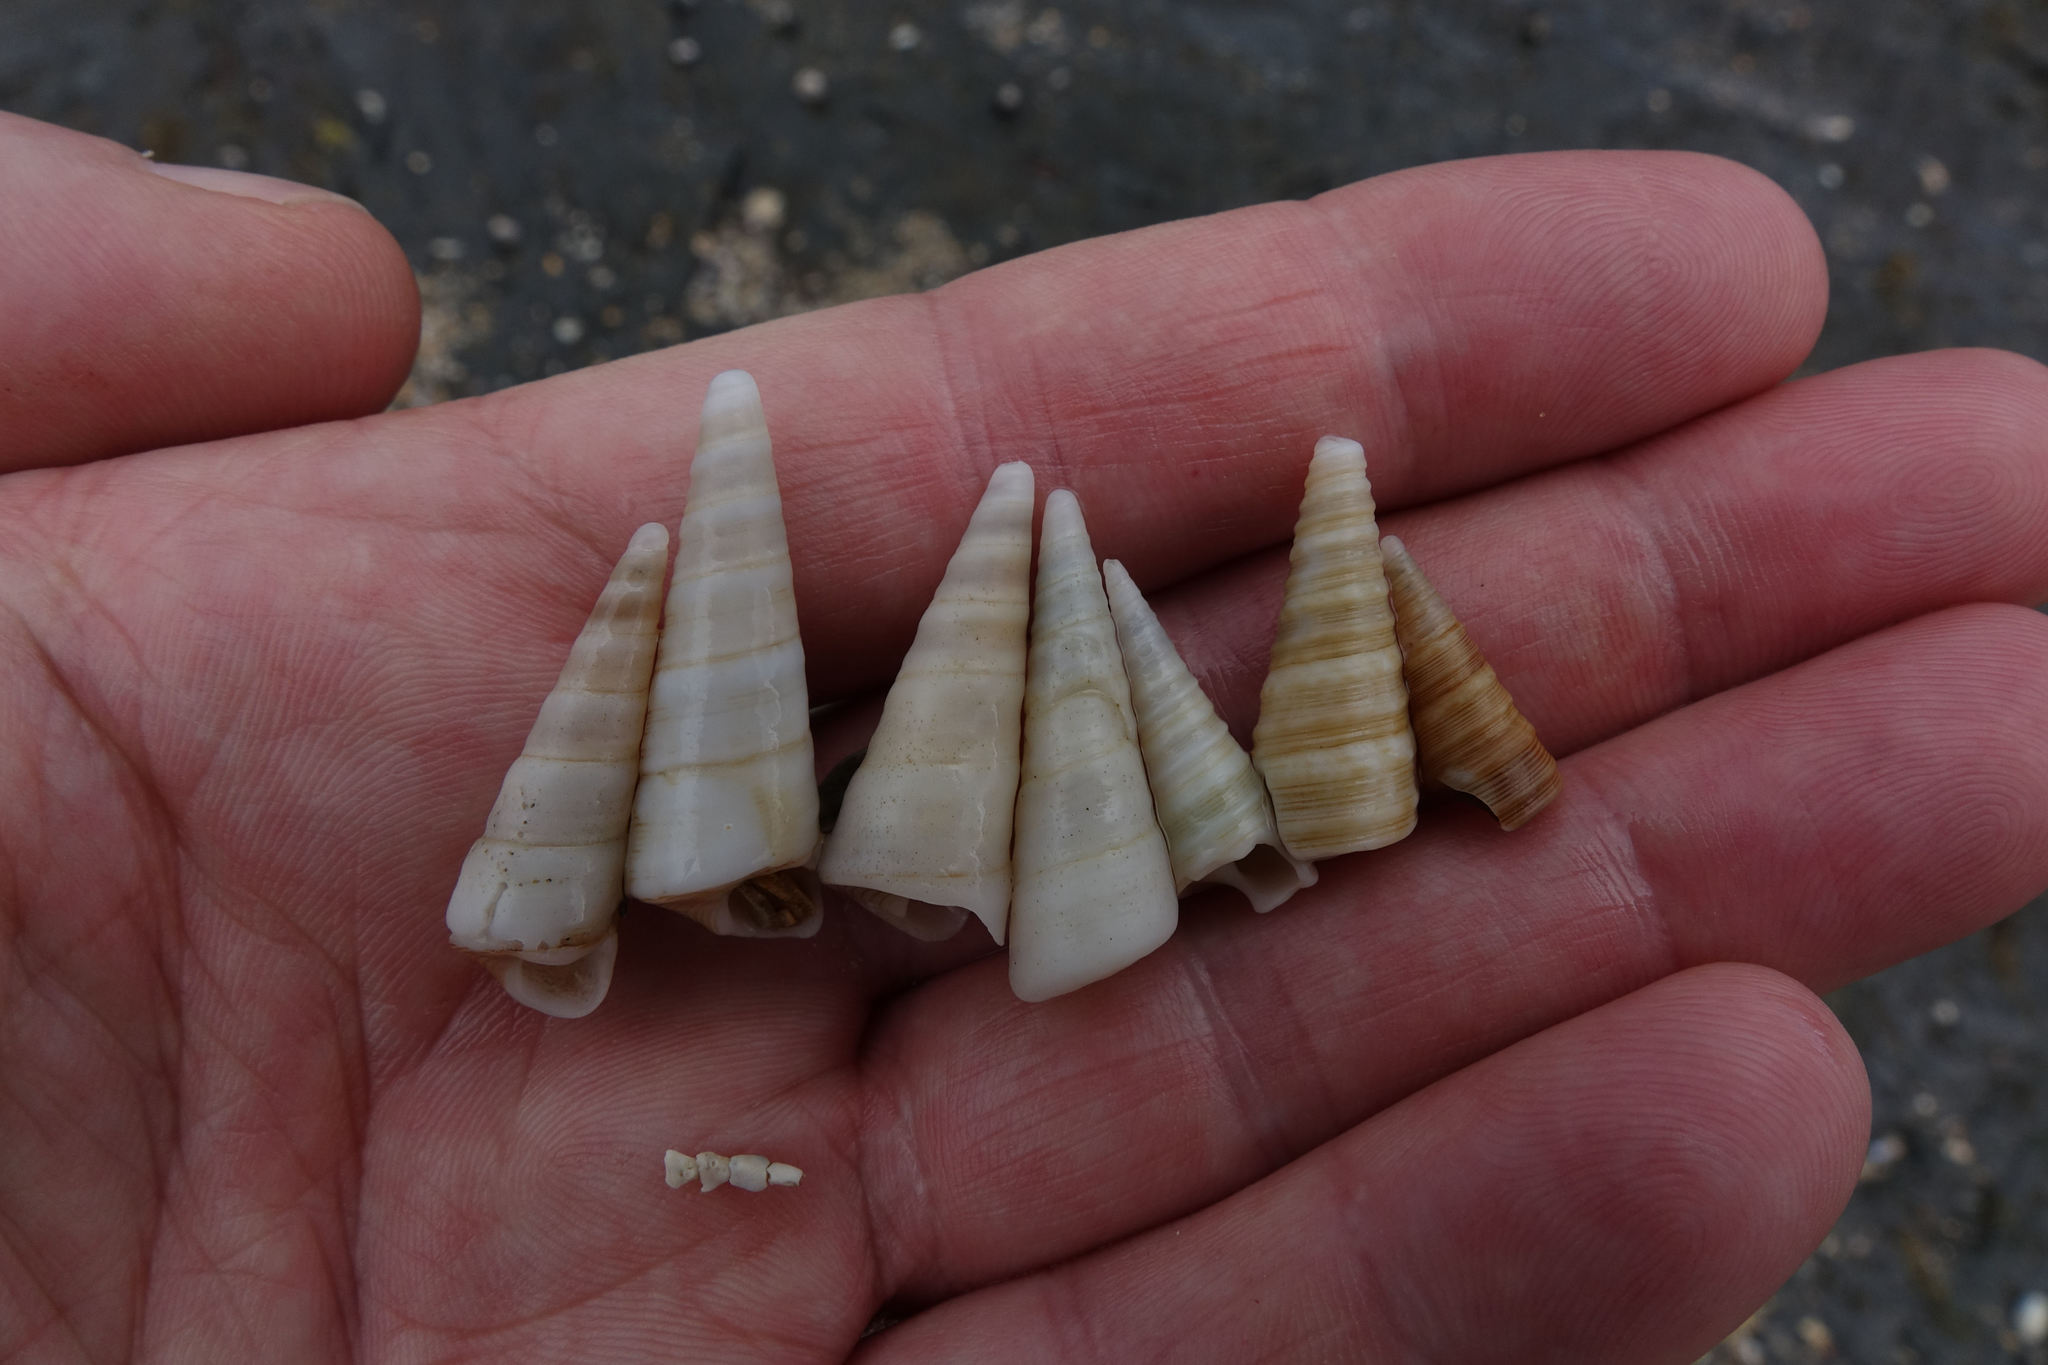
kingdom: Animalia
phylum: Mollusca
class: Gastropoda
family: Turritellidae
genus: Maoricolpus
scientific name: Maoricolpus roseus
